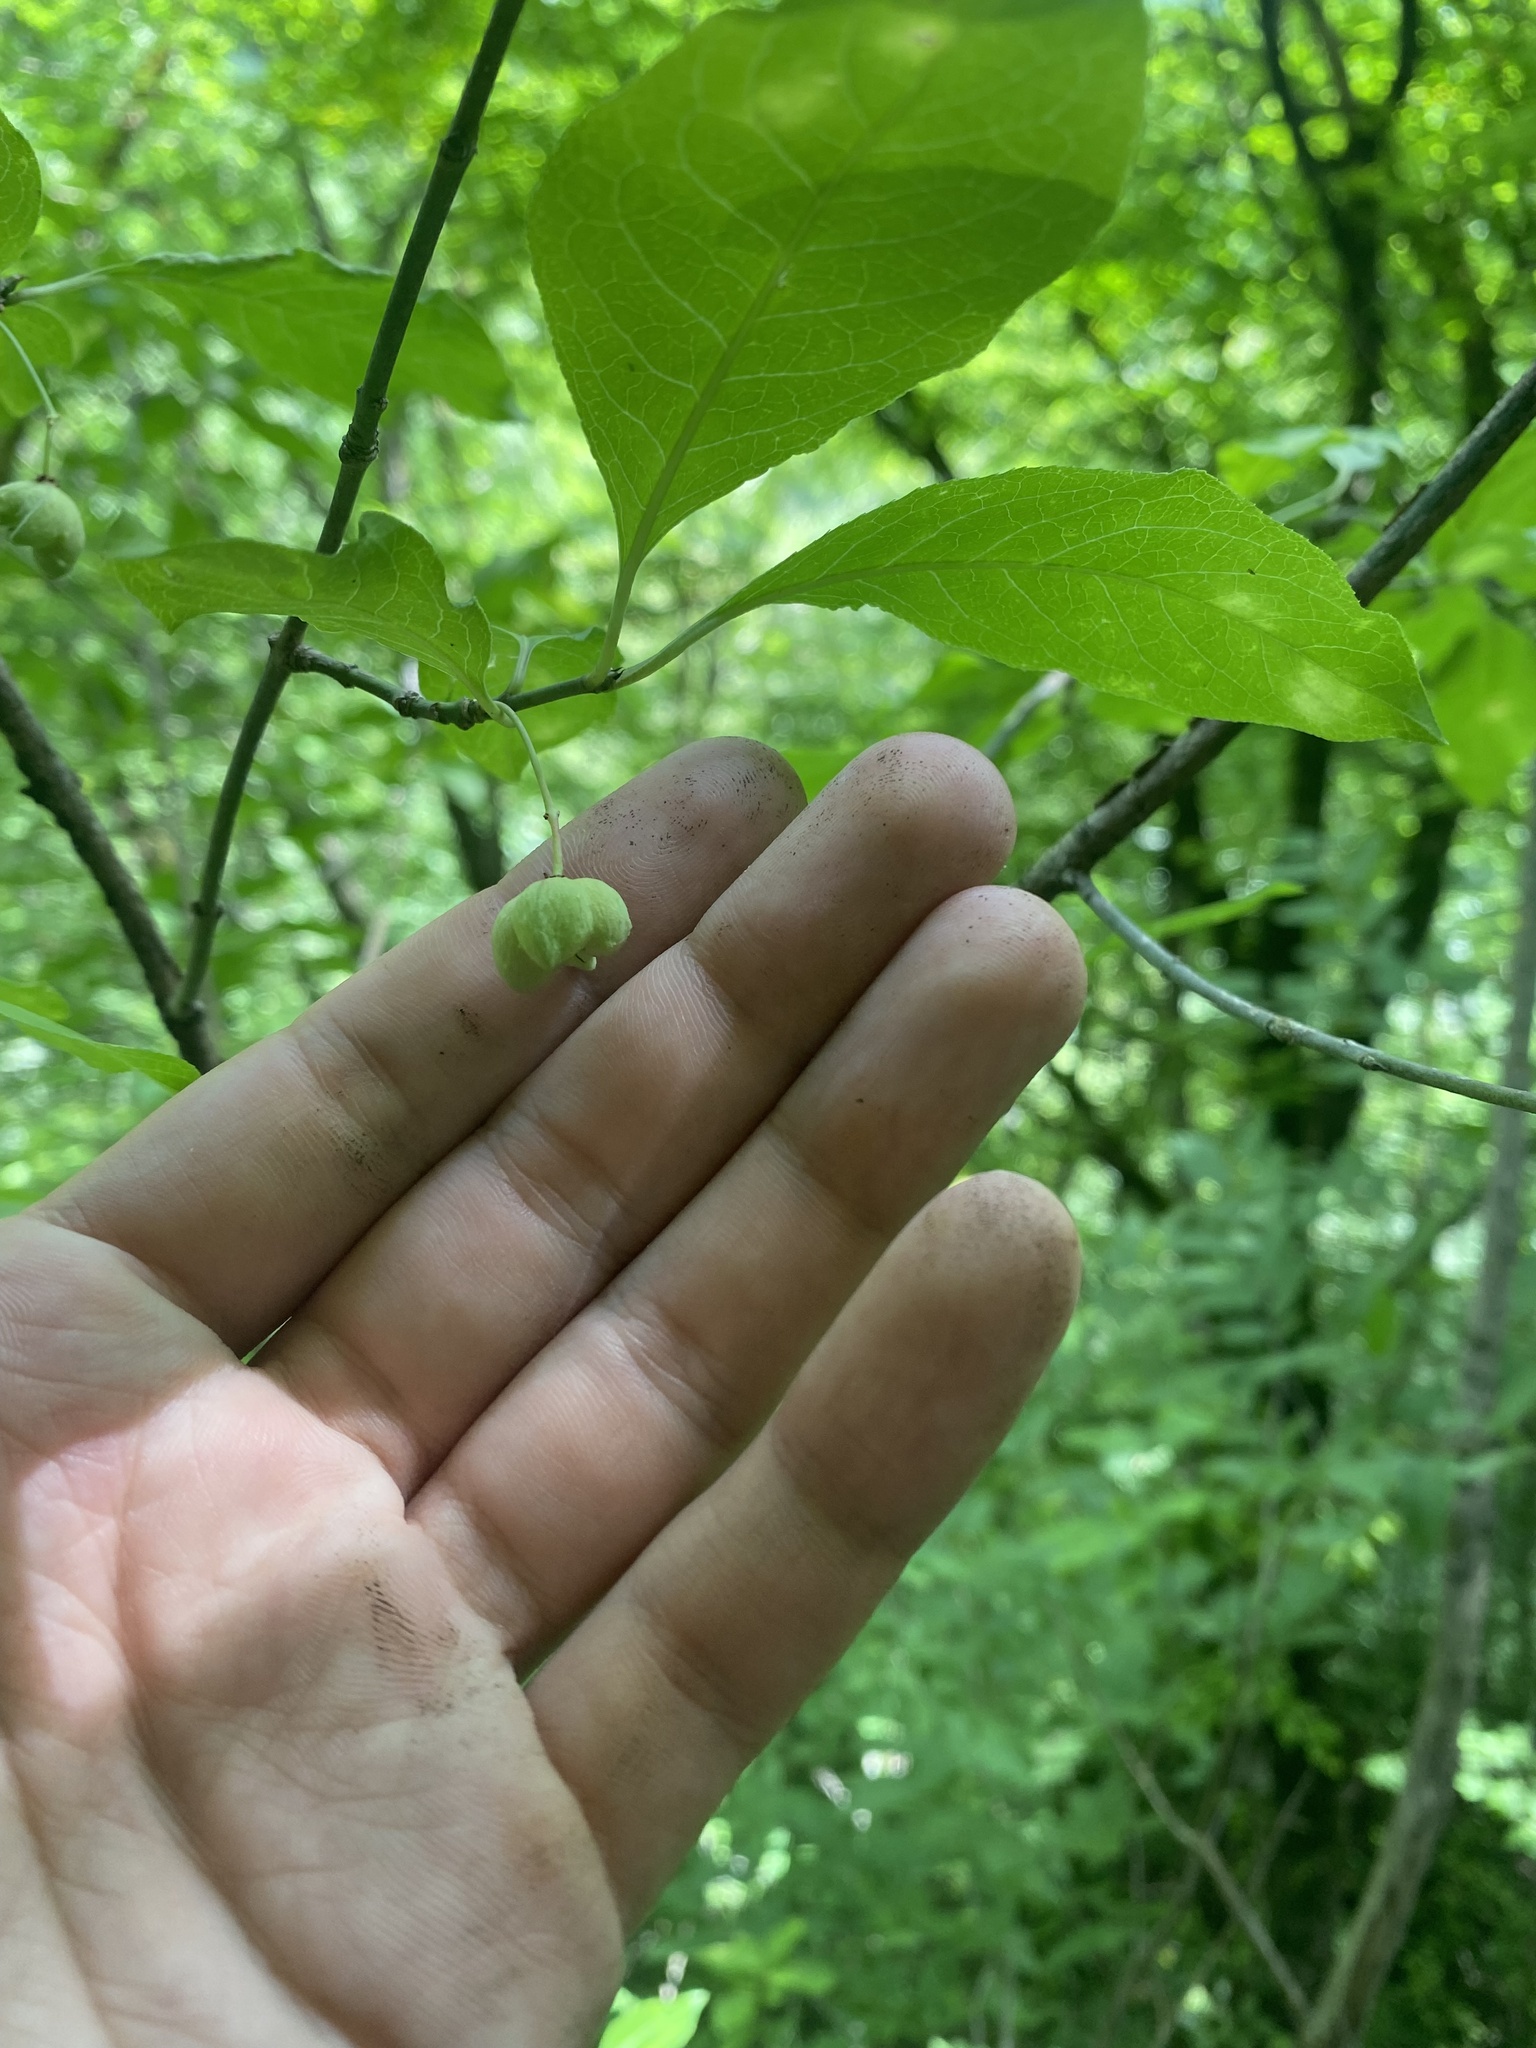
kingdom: Plantae
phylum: Tracheophyta
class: Magnoliopsida
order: Celastrales
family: Celastraceae
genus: Euonymus
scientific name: Euonymus europaeus
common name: Spindle
